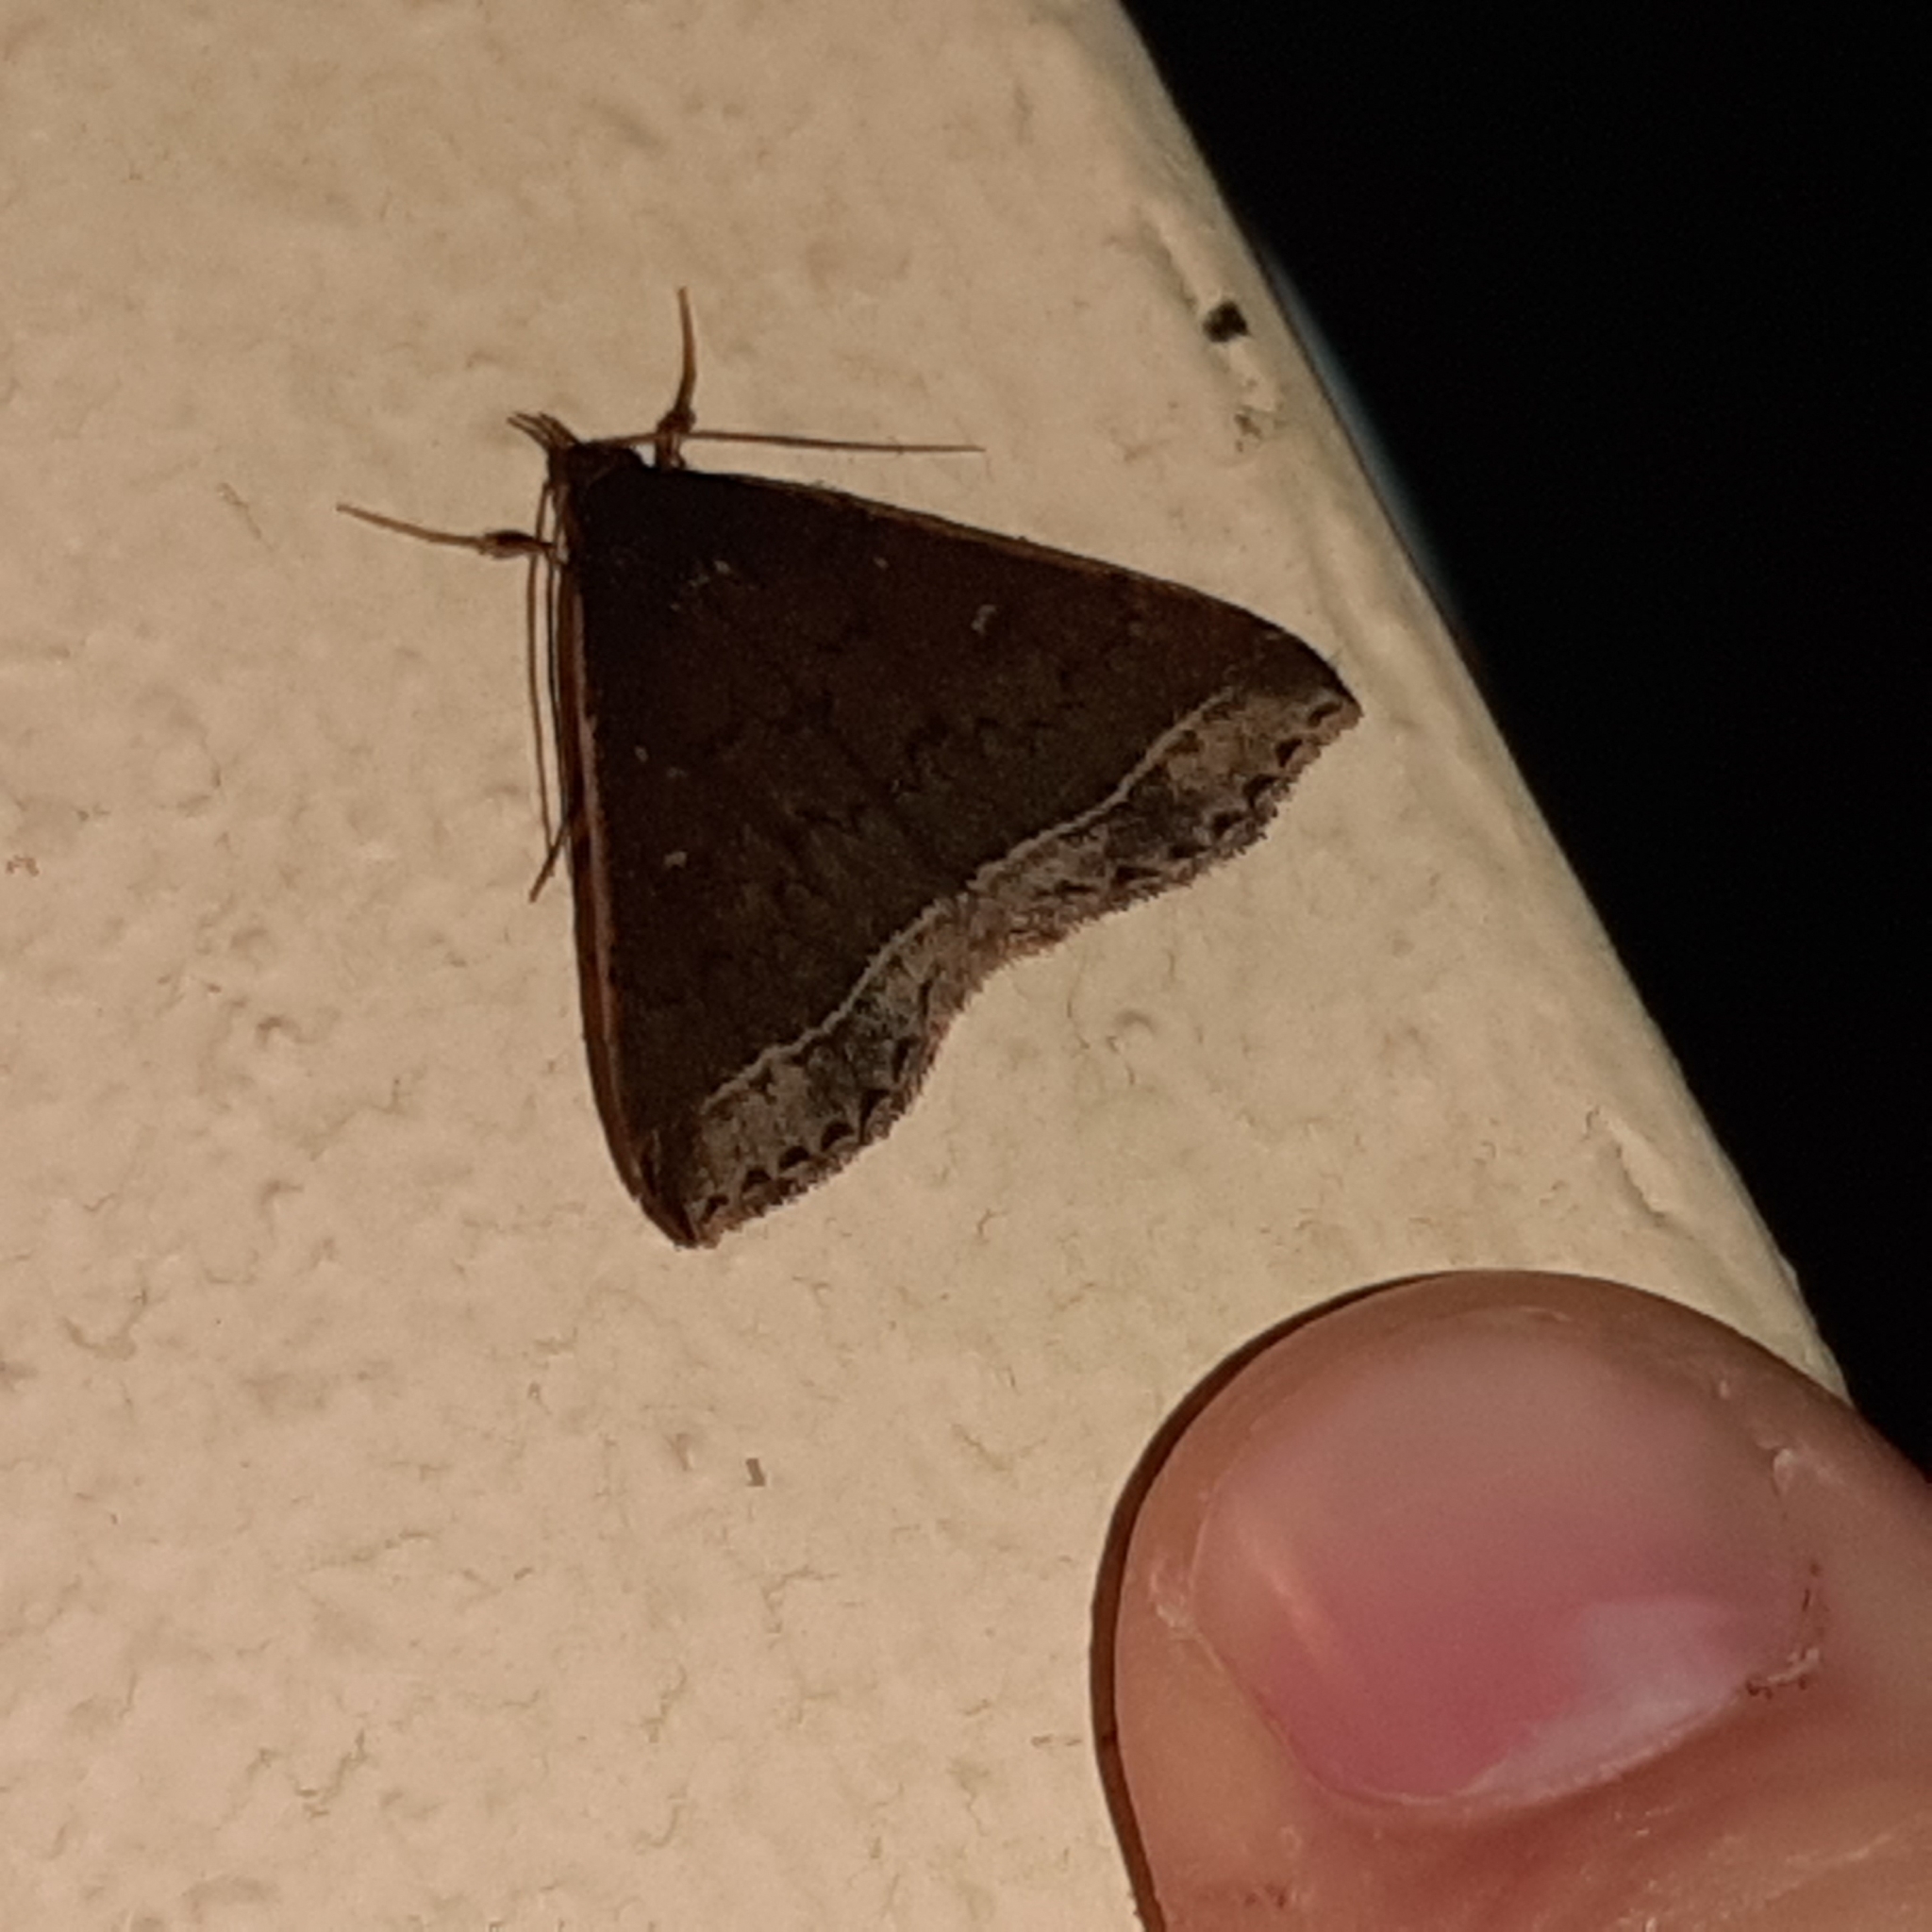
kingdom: Animalia
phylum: Arthropoda
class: Insecta
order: Lepidoptera
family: Erebidae
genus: Mamerthes
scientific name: Mamerthes orionalis
